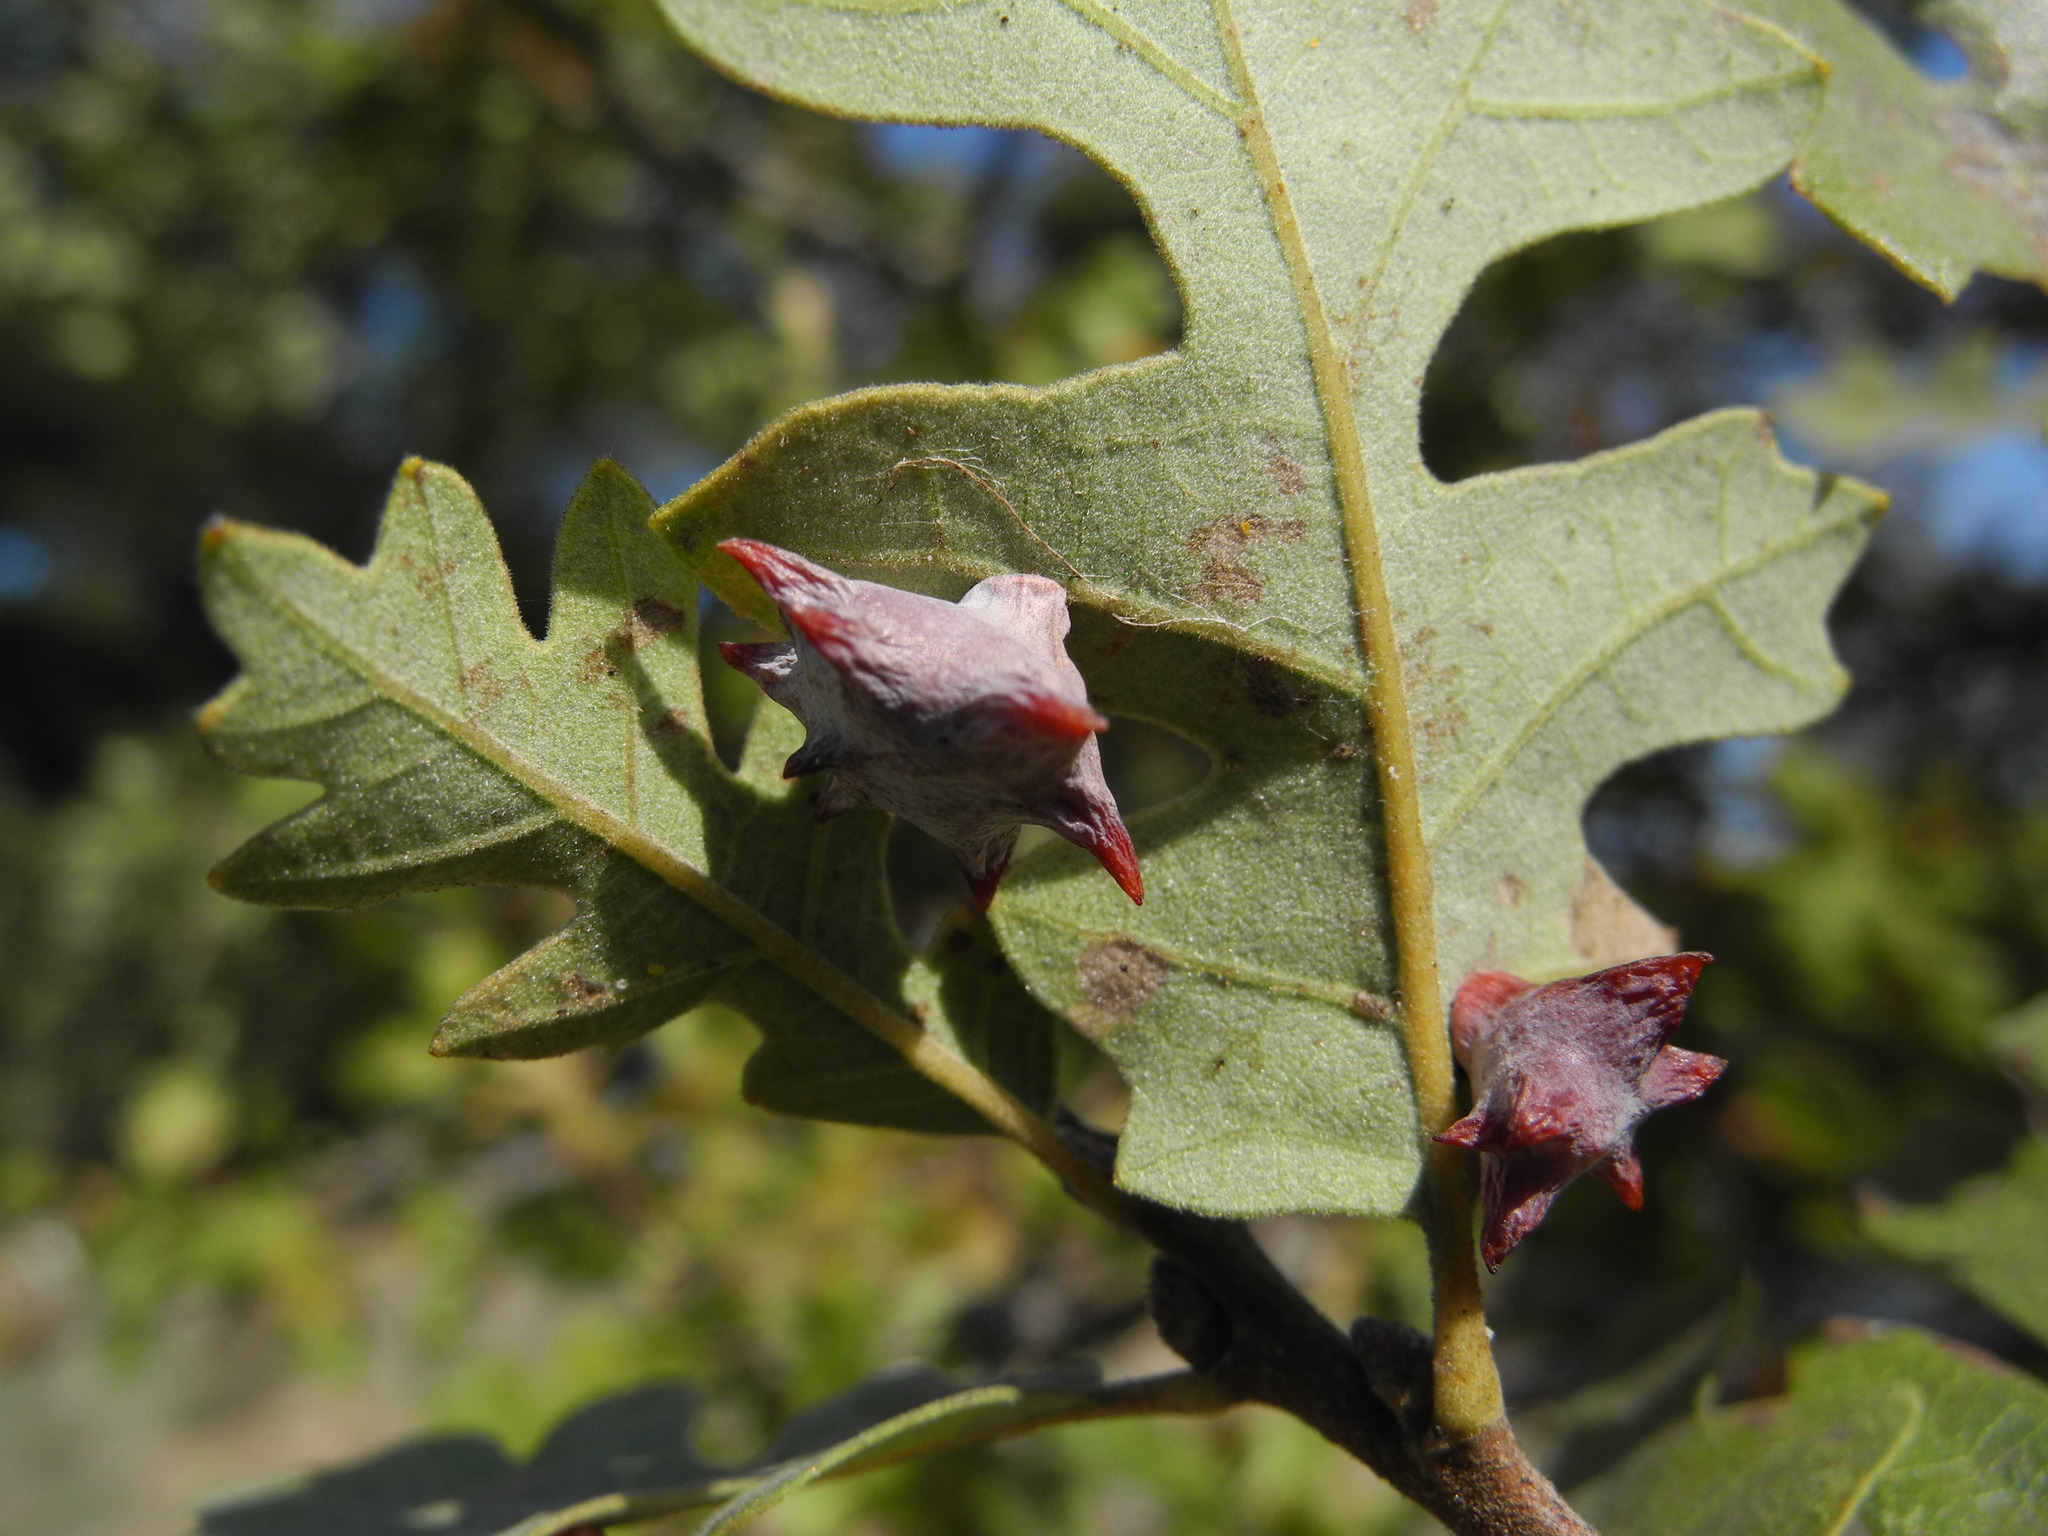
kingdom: Animalia
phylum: Arthropoda
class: Insecta
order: Hymenoptera
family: Cynipidae
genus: Cynips
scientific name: Cynips douglasi
